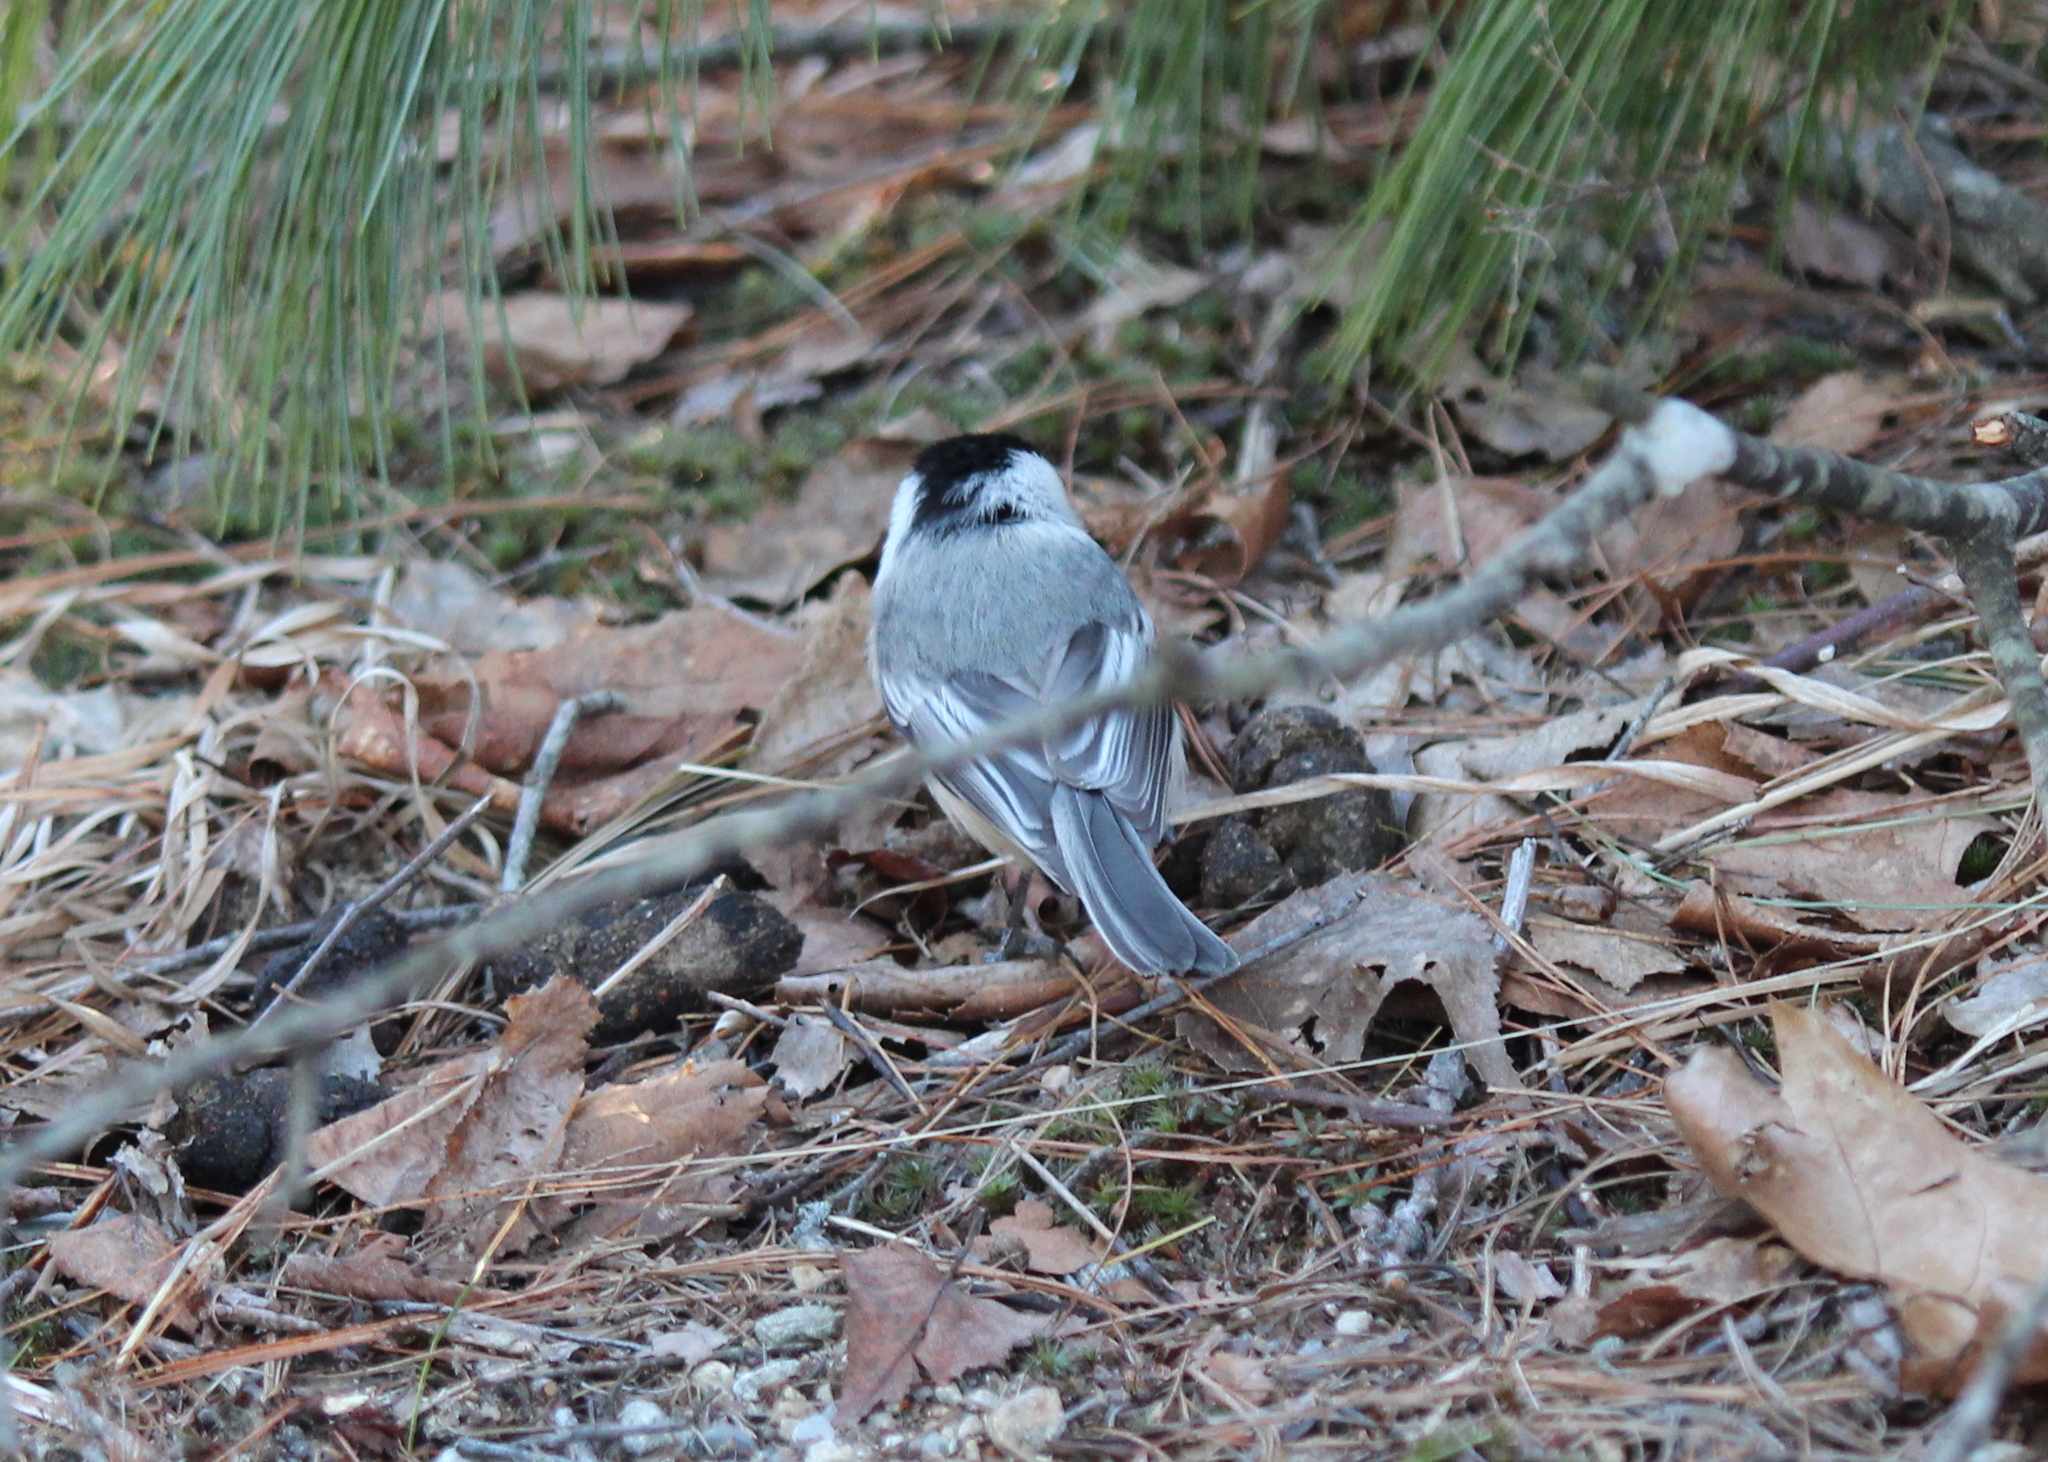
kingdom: Animalia
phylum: Chordata
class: Aves
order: Passeriformes
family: Paridae
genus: Poecile
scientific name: Poecile atricapillus
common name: Black-capped chickadee
